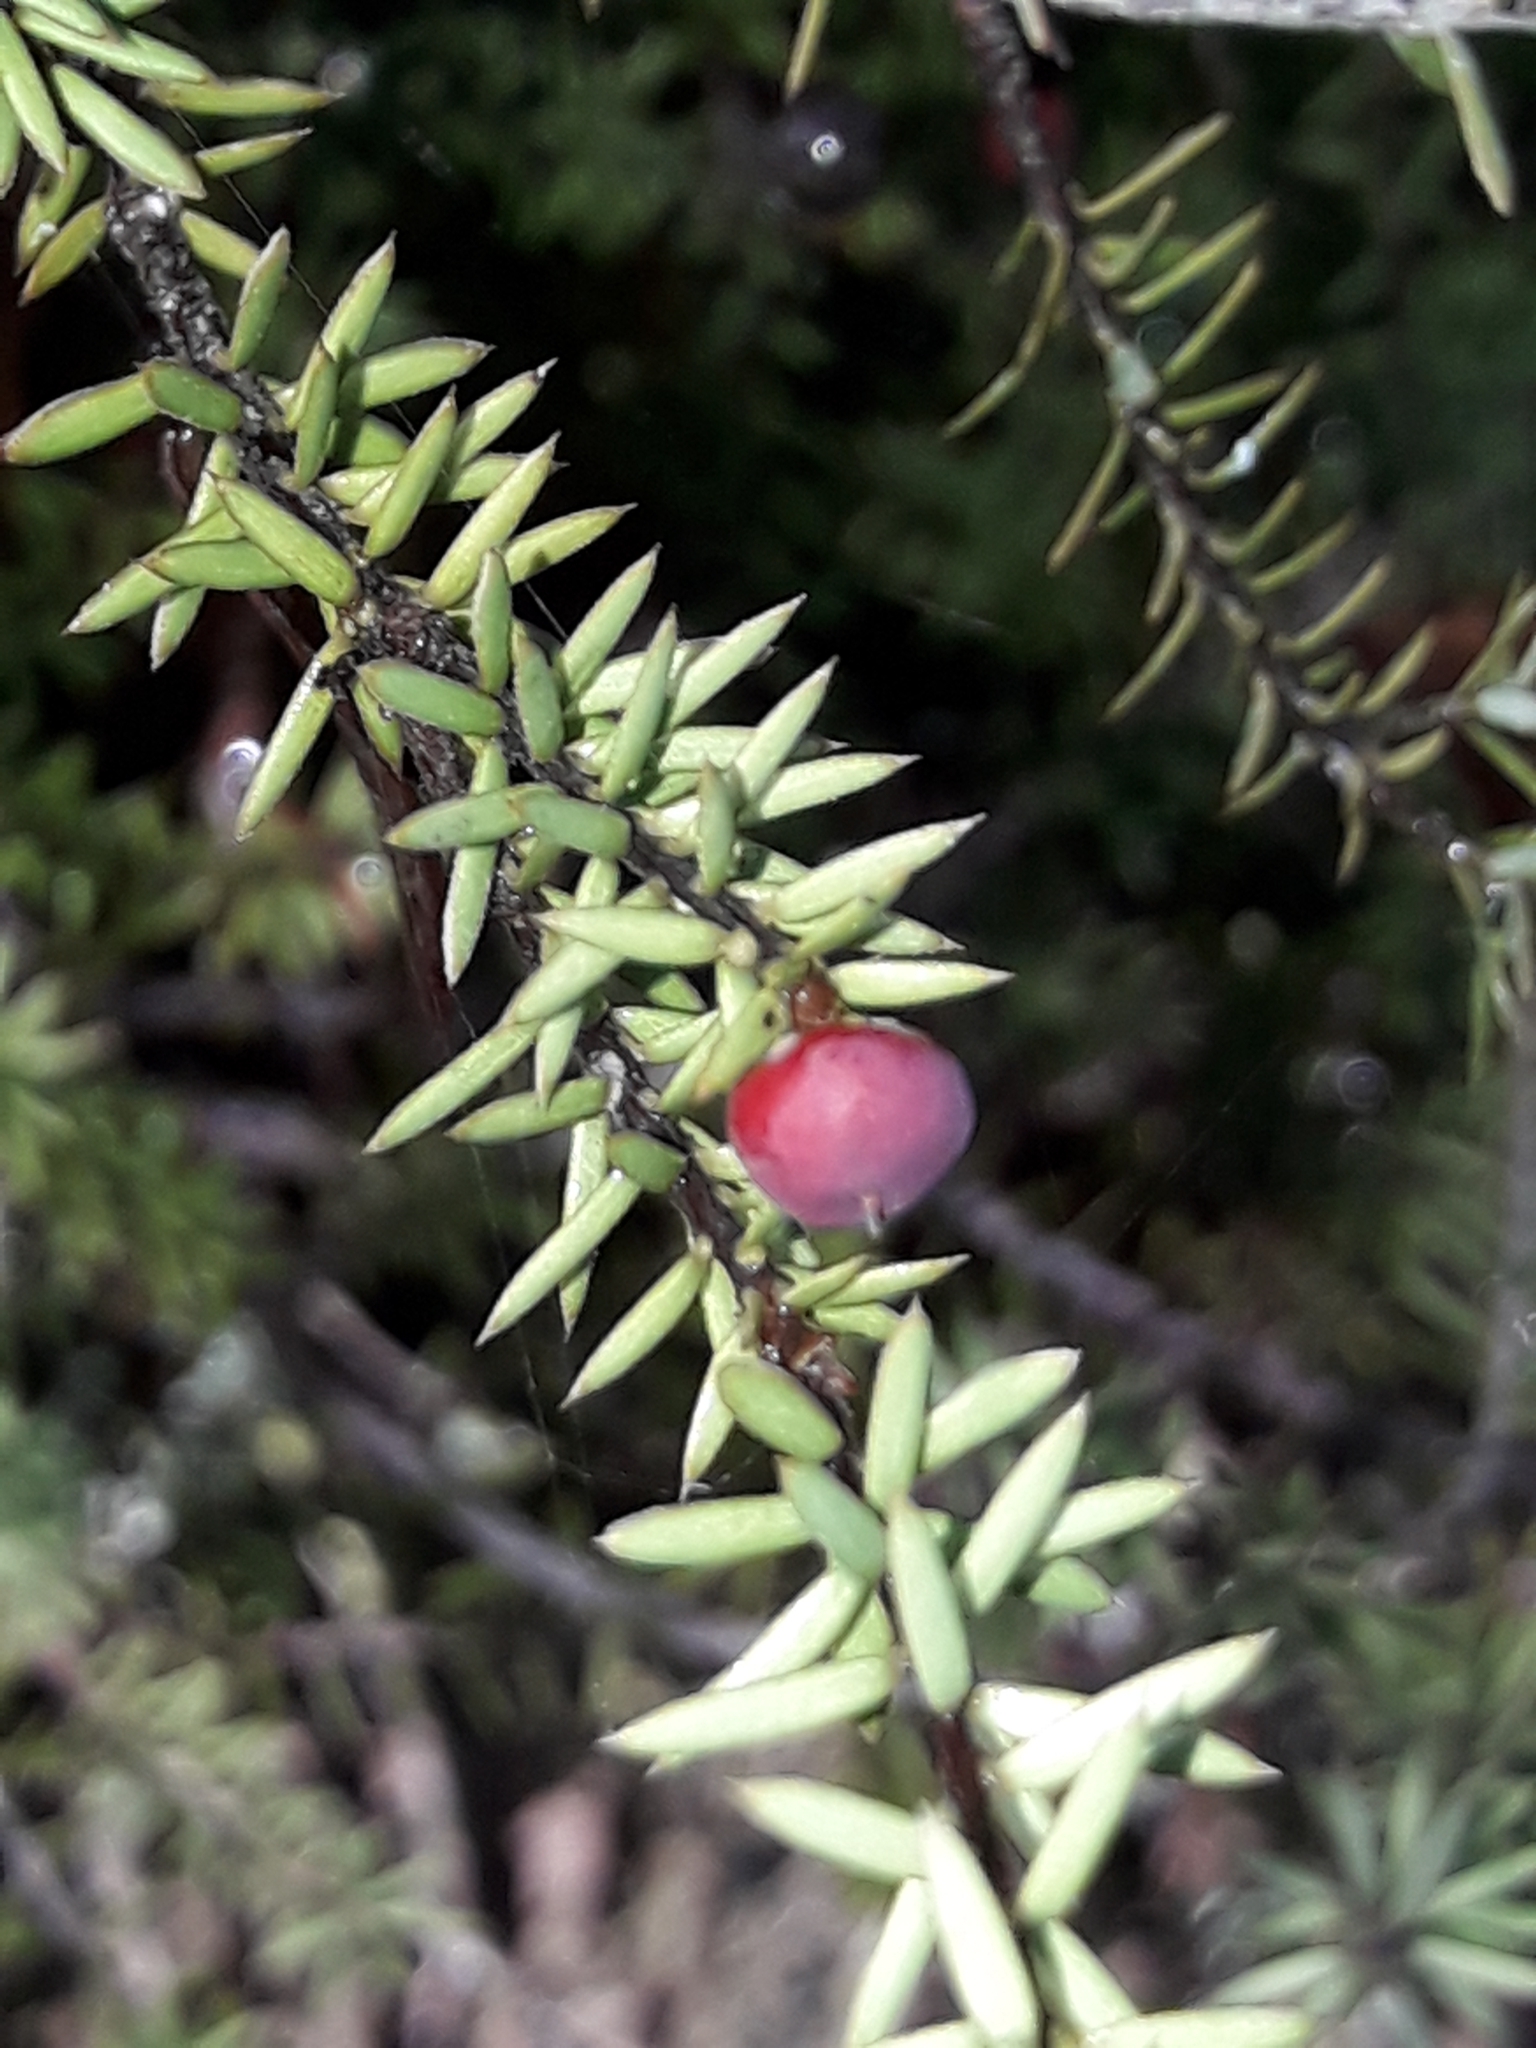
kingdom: Plantae
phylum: Tracheophyta
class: Magnoliopsida
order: Ericales
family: Ericaceae
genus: Leptecophylla
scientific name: Leptecophylla juniperina
